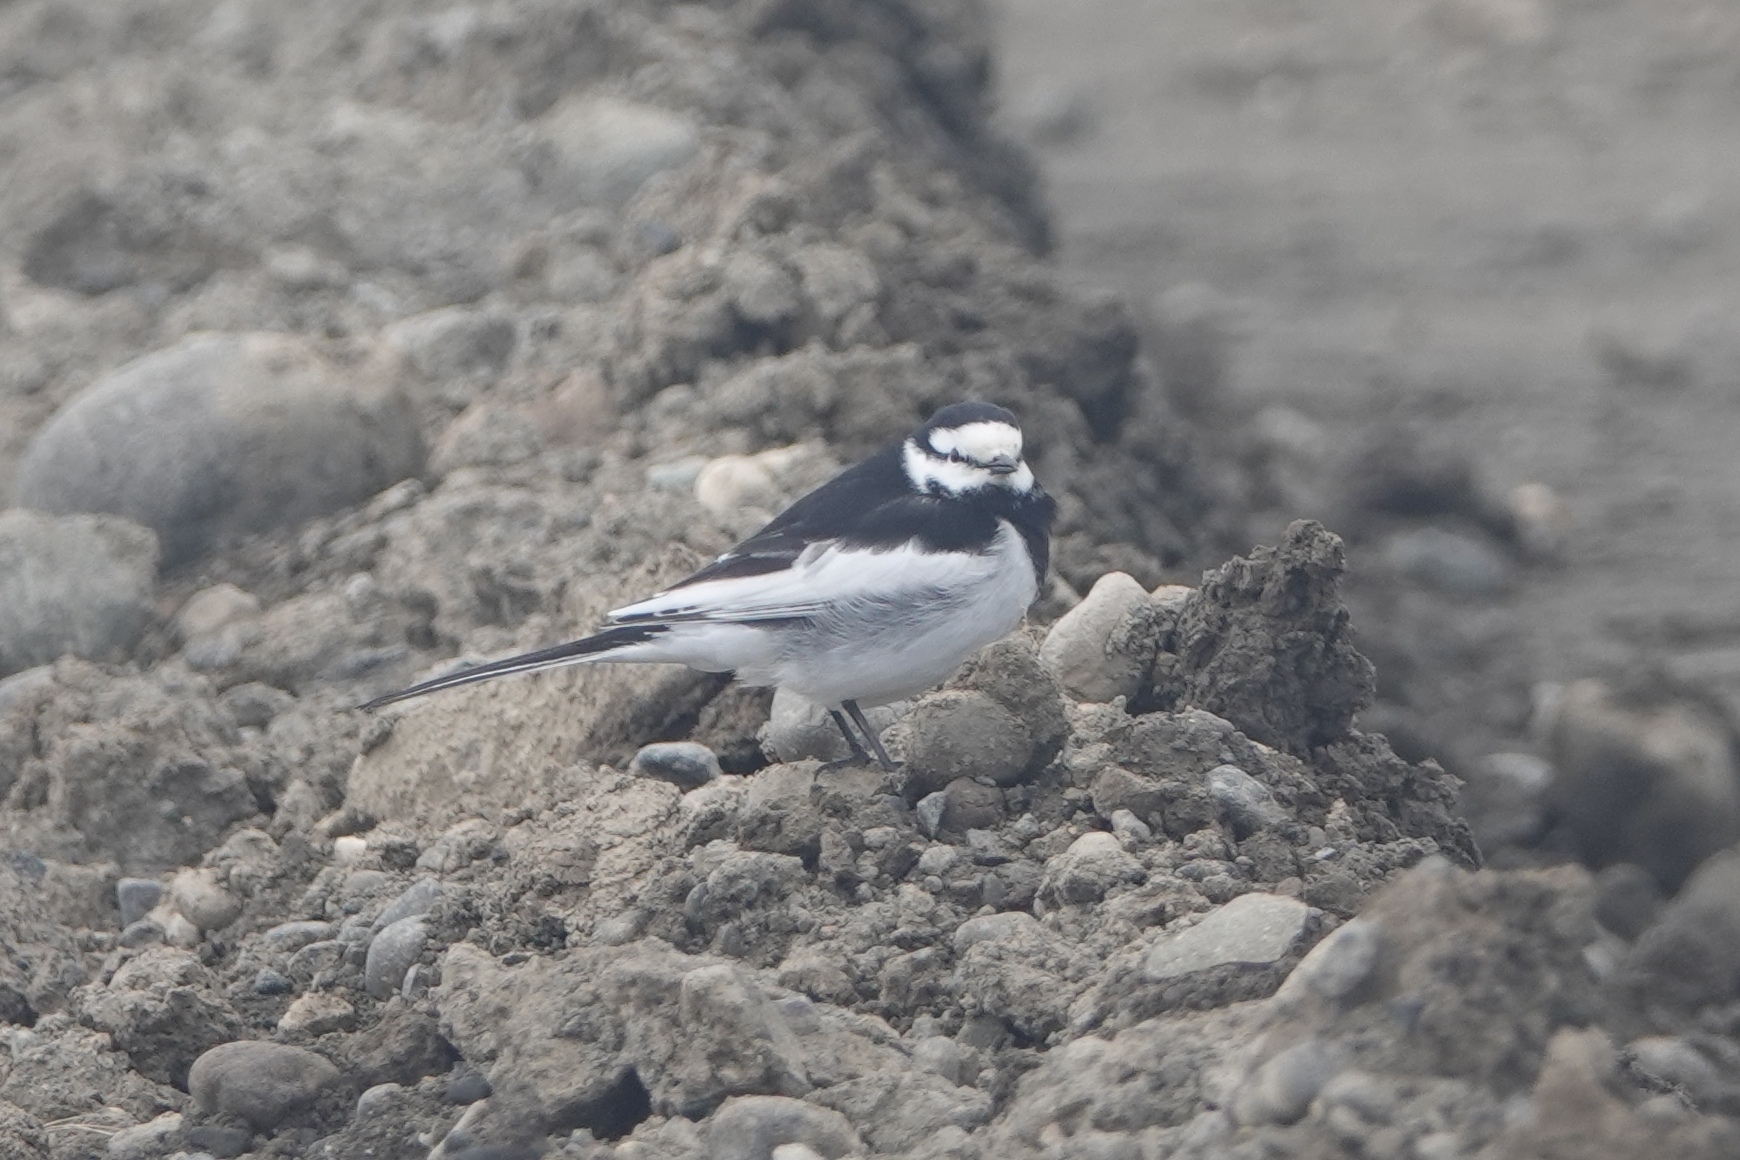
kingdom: Animalia
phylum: Chordata
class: Aves
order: Passeriformes
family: Motacillidae
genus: Motacilla
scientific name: Motacilla alba
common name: White wagtail
